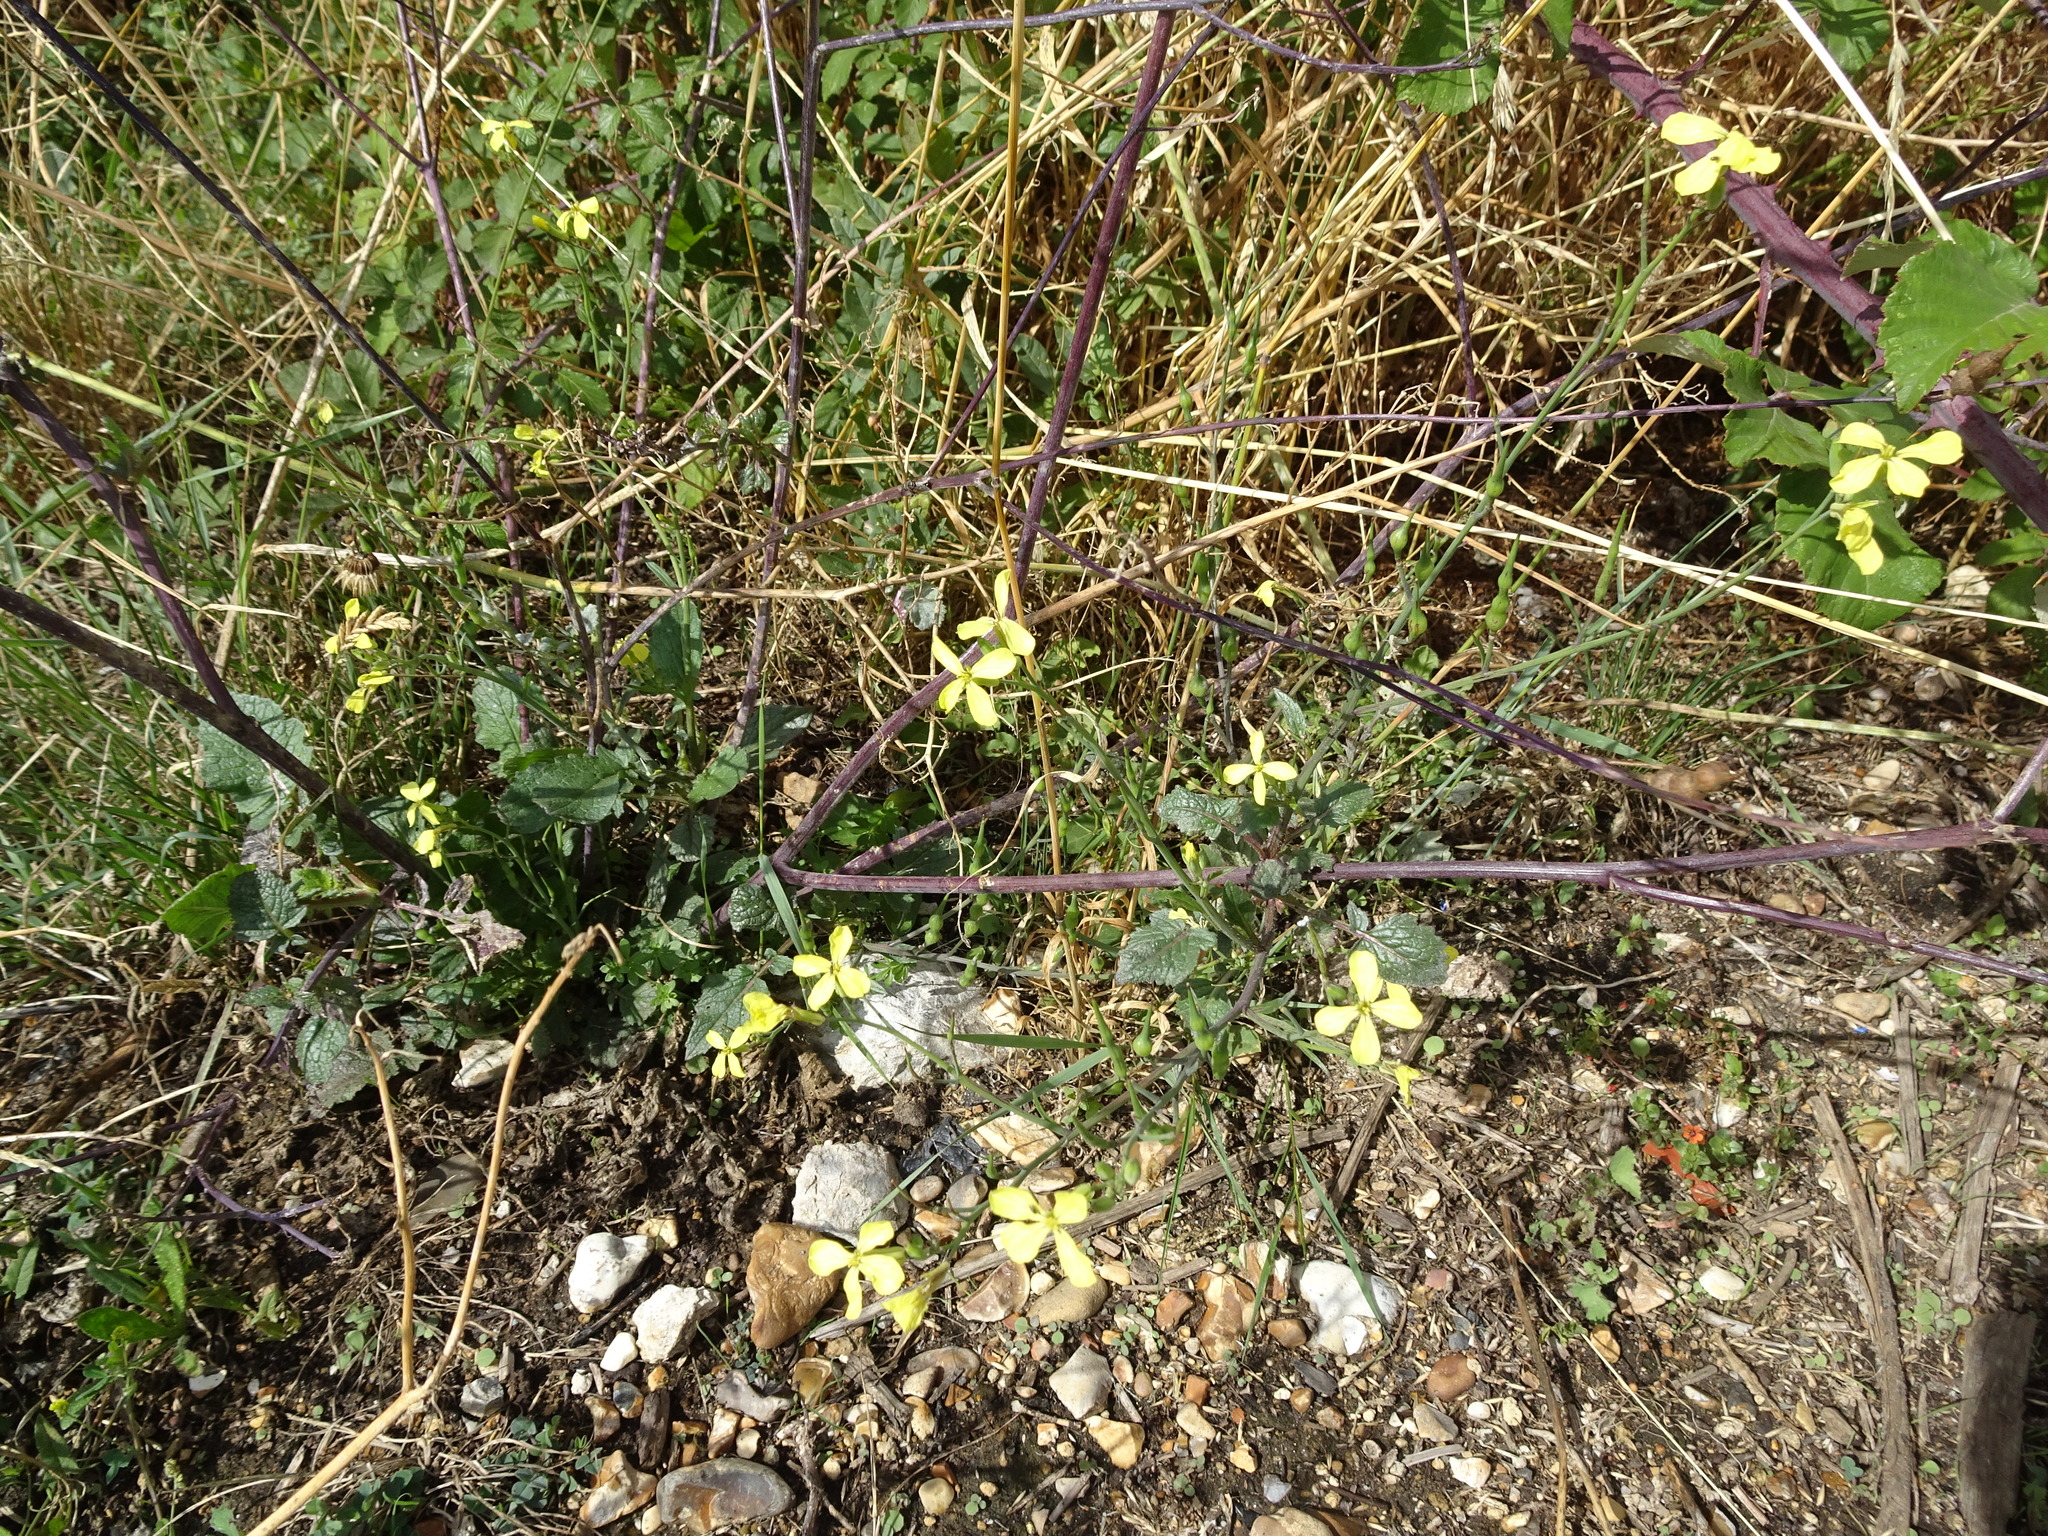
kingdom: Plantae
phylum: Tracheophyta
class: Magnoliopsida
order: Brassicales
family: Brassicaceae
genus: Raphanus
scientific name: Raphanus raphanistrum
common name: Wild radish
